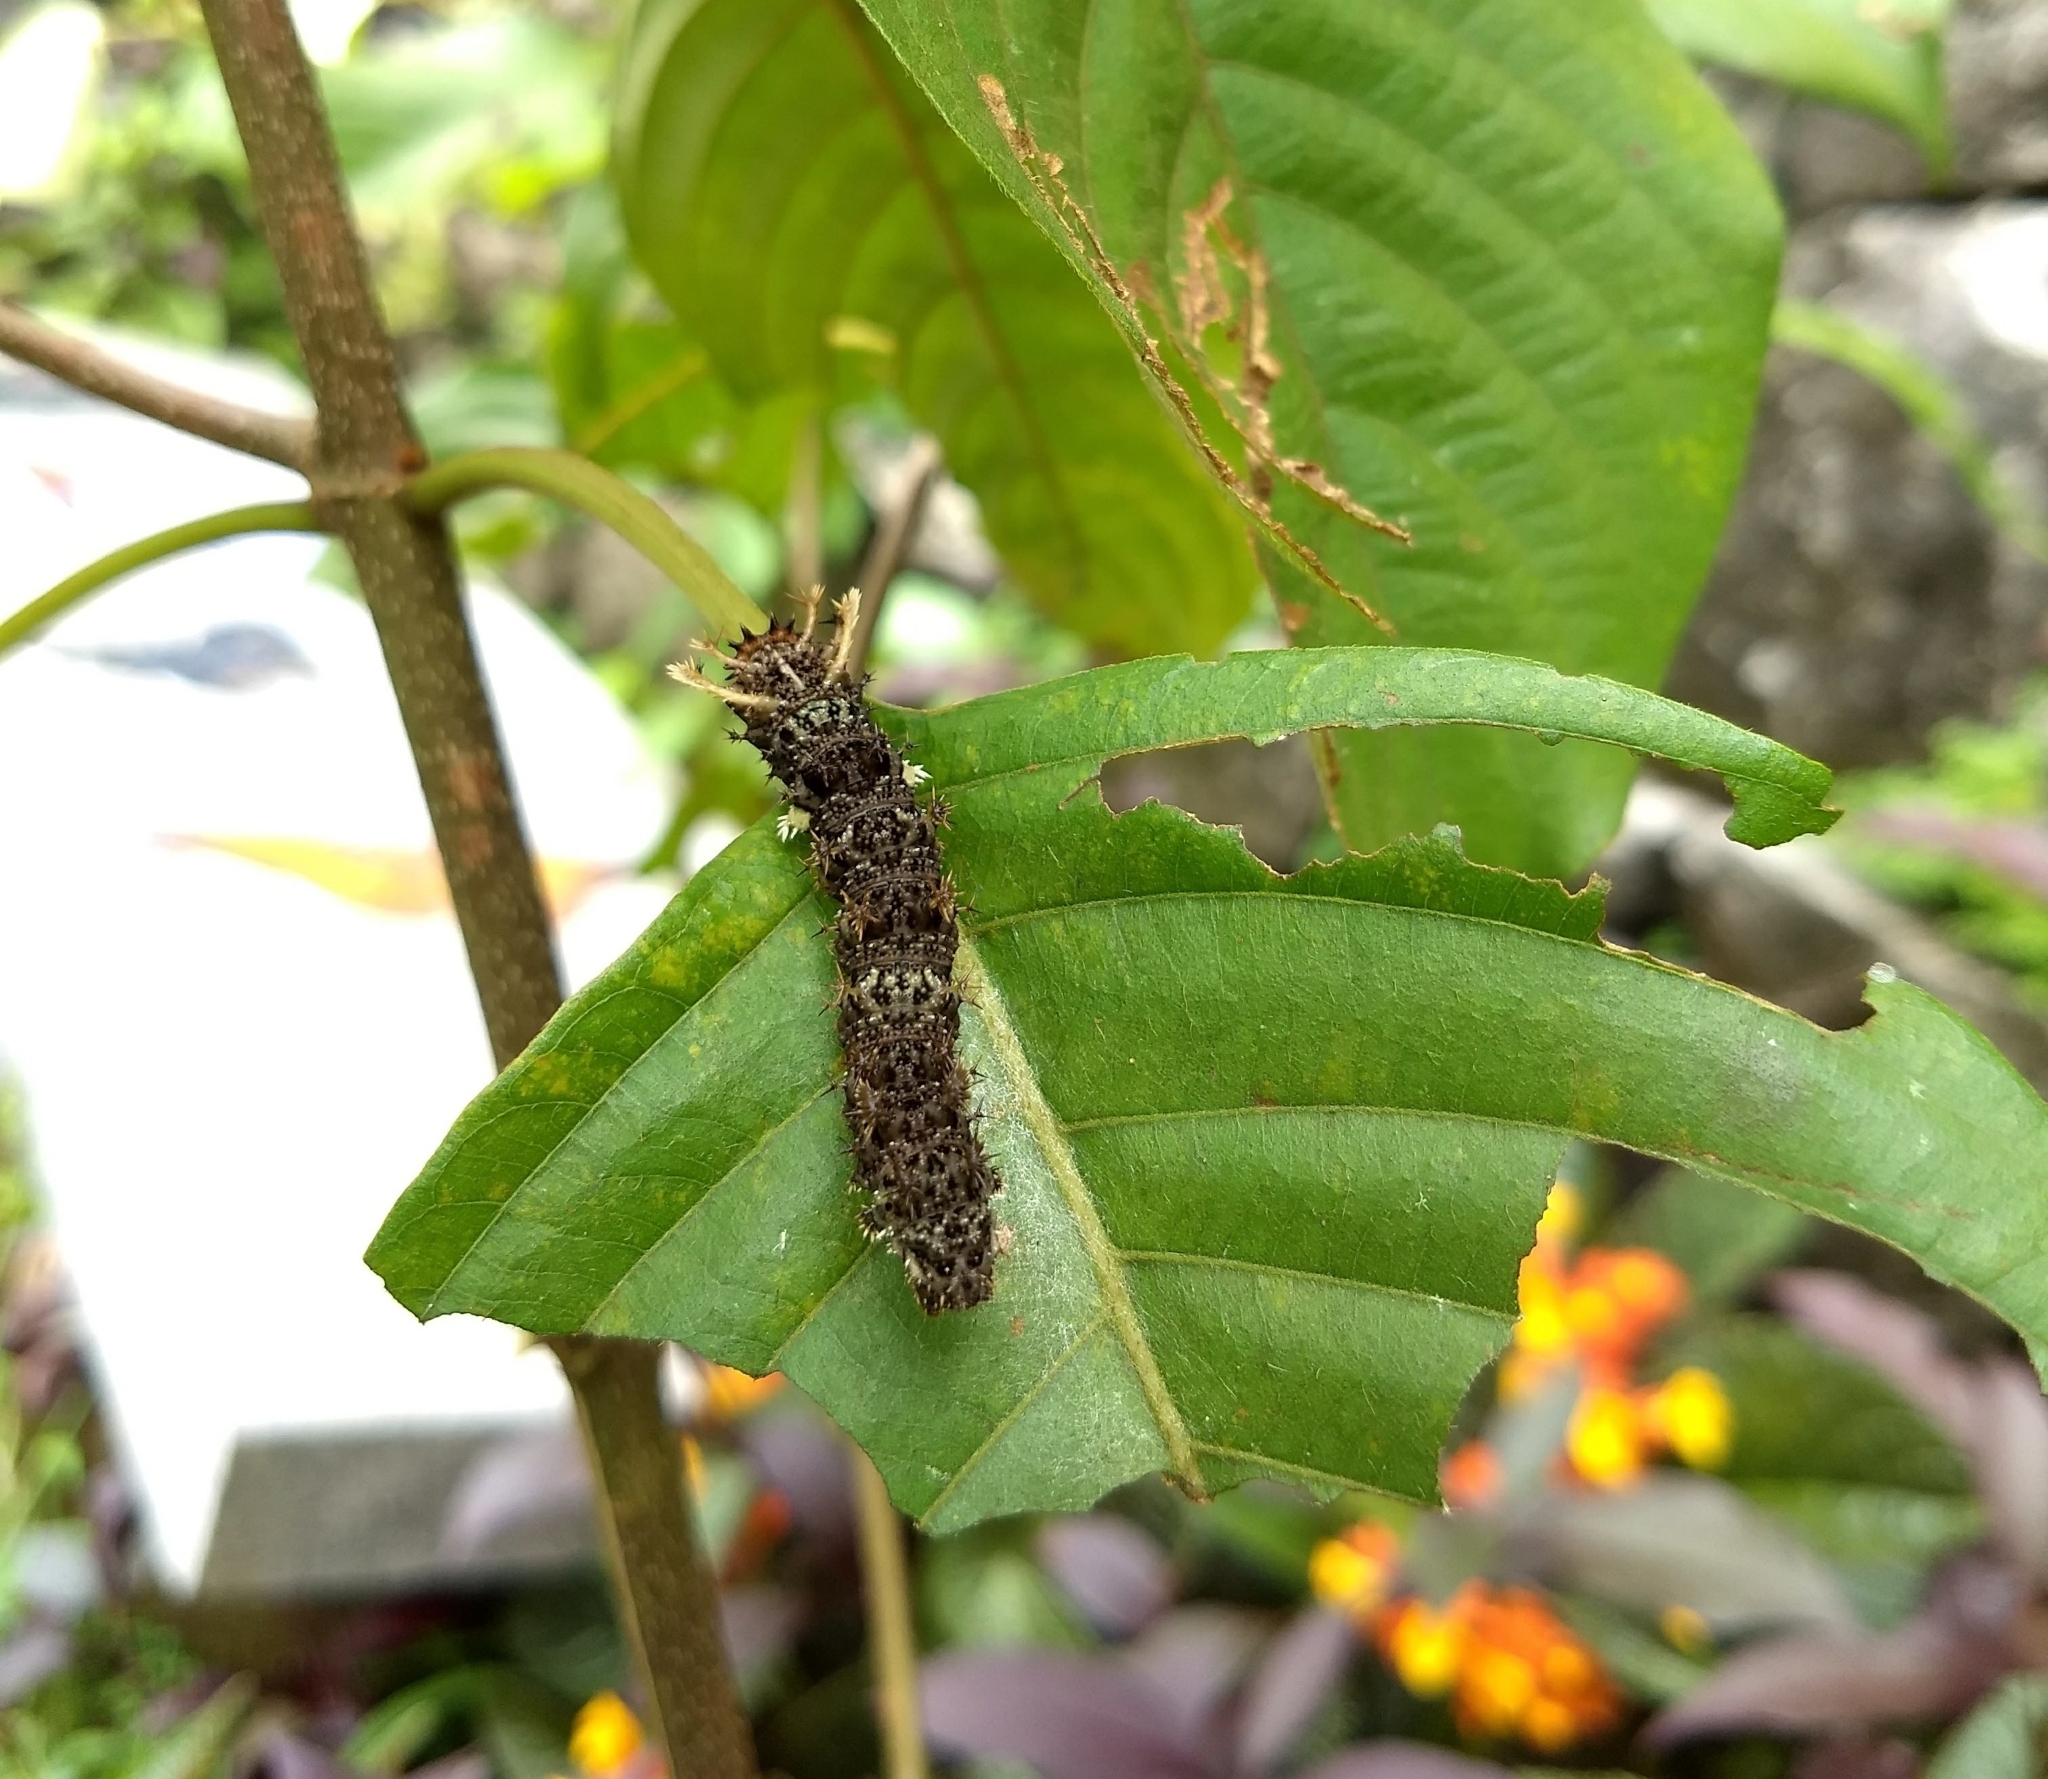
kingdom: Animalia
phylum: Arthropoda
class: Insecta
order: Lepidoptera
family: Nymphalidae
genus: Limenitis
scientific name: Limenitis Moduza procris
